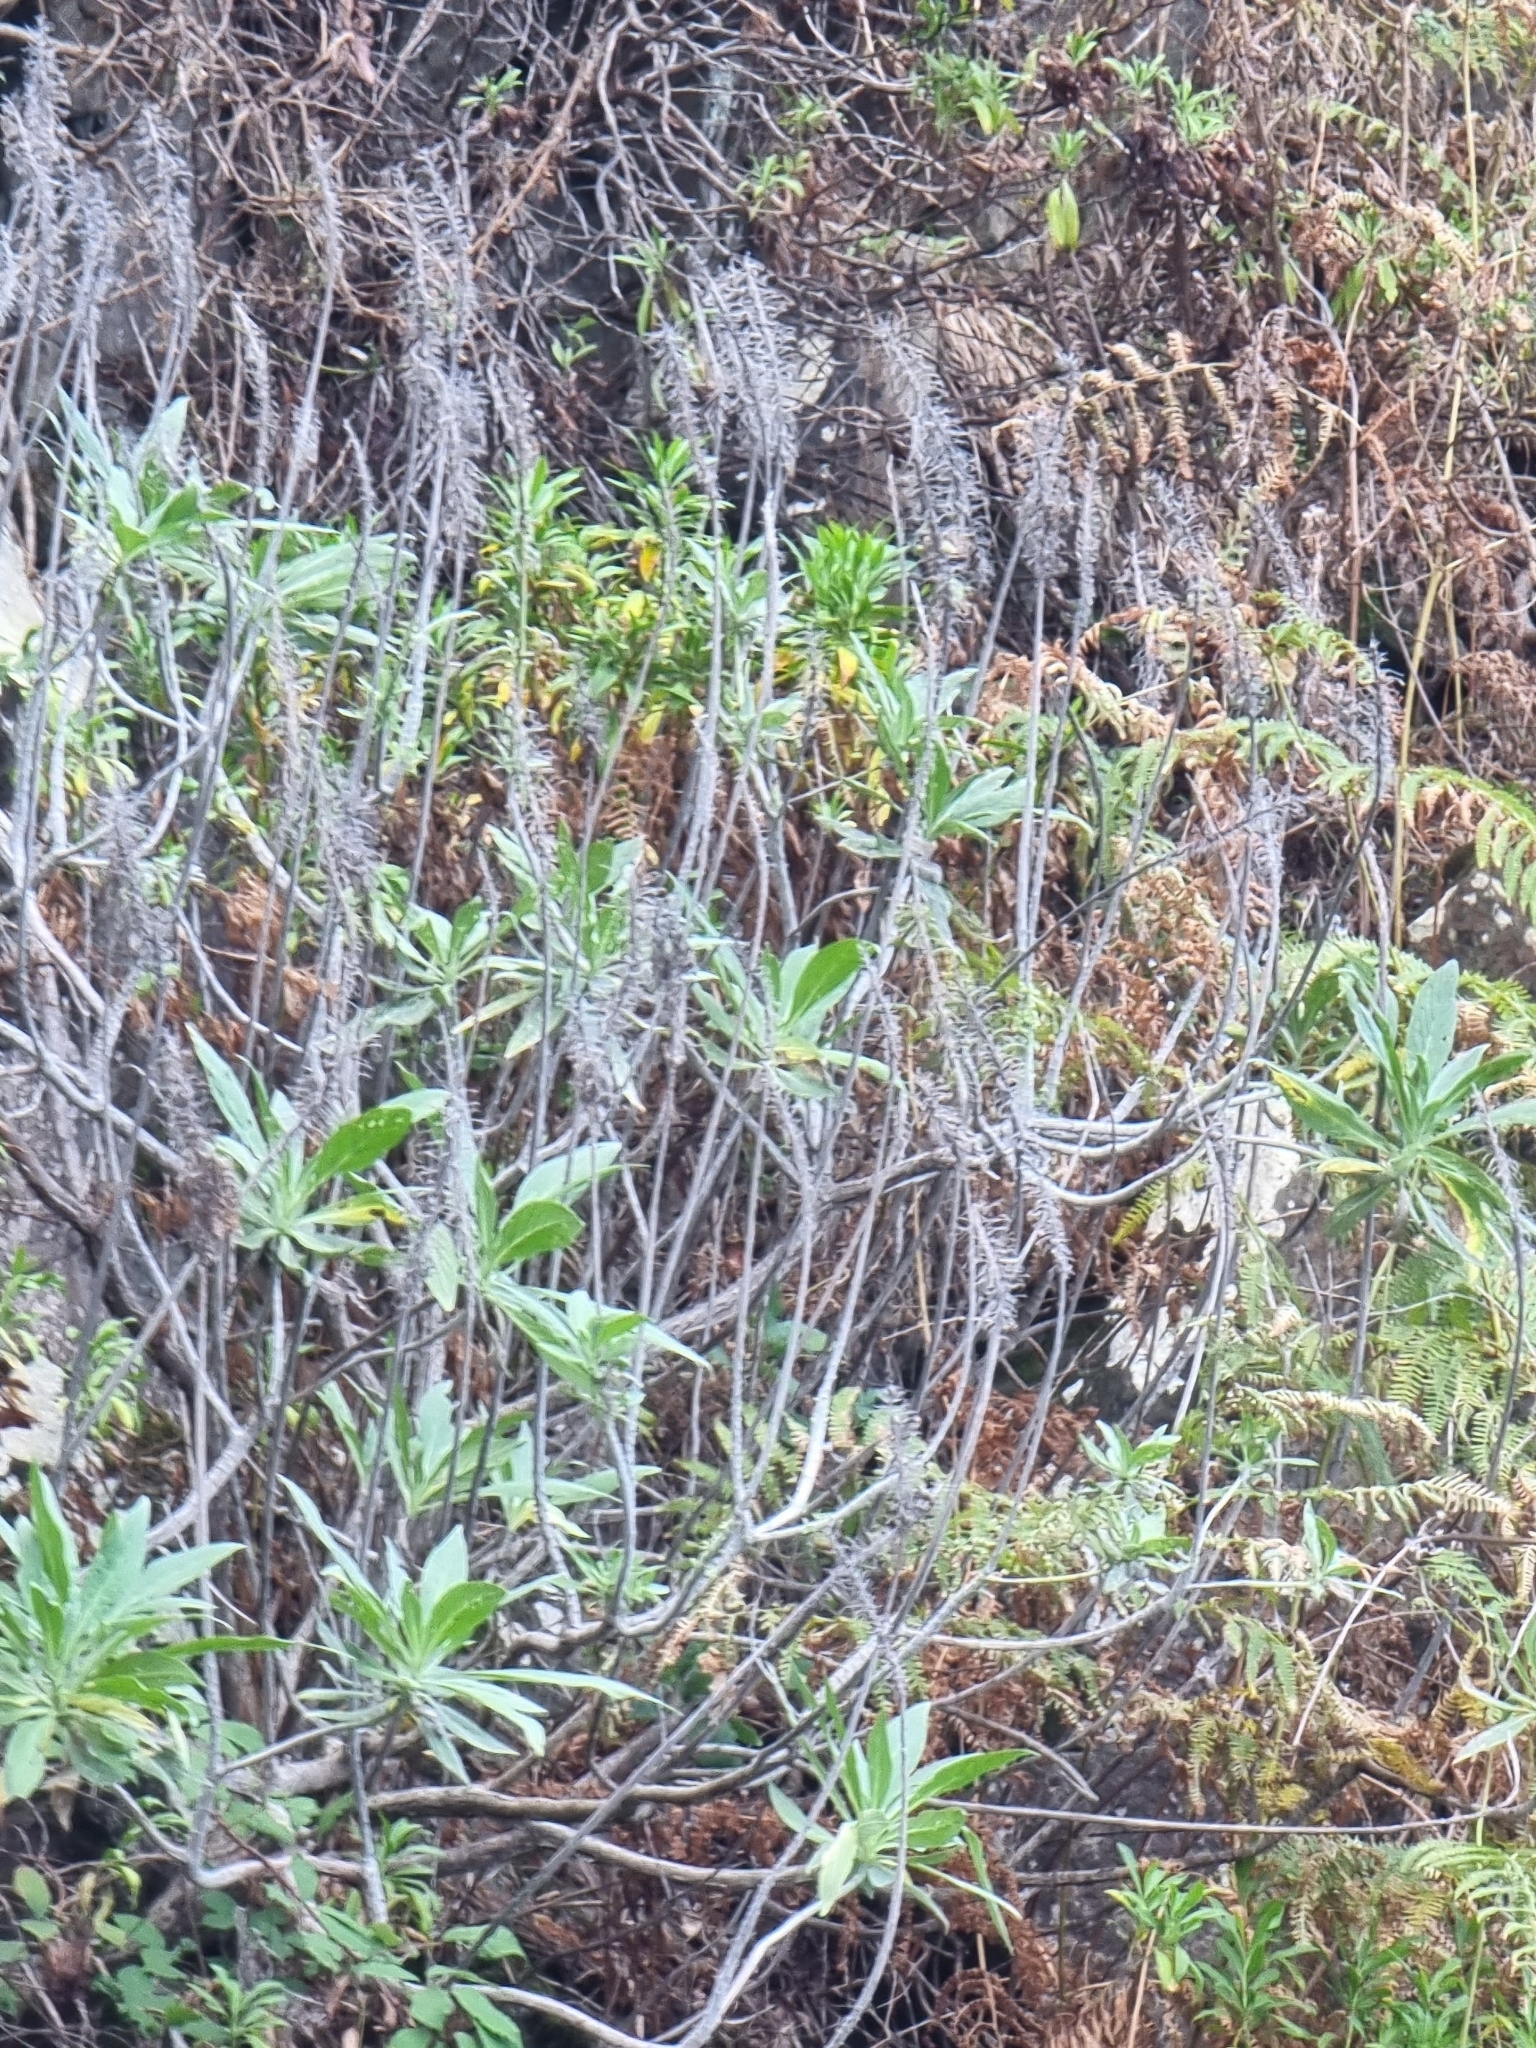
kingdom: Plantae
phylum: Tracheophyta
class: Magnoliopsida
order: Boraginales
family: Boraginaceae
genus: Echium
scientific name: Echium nervosum
